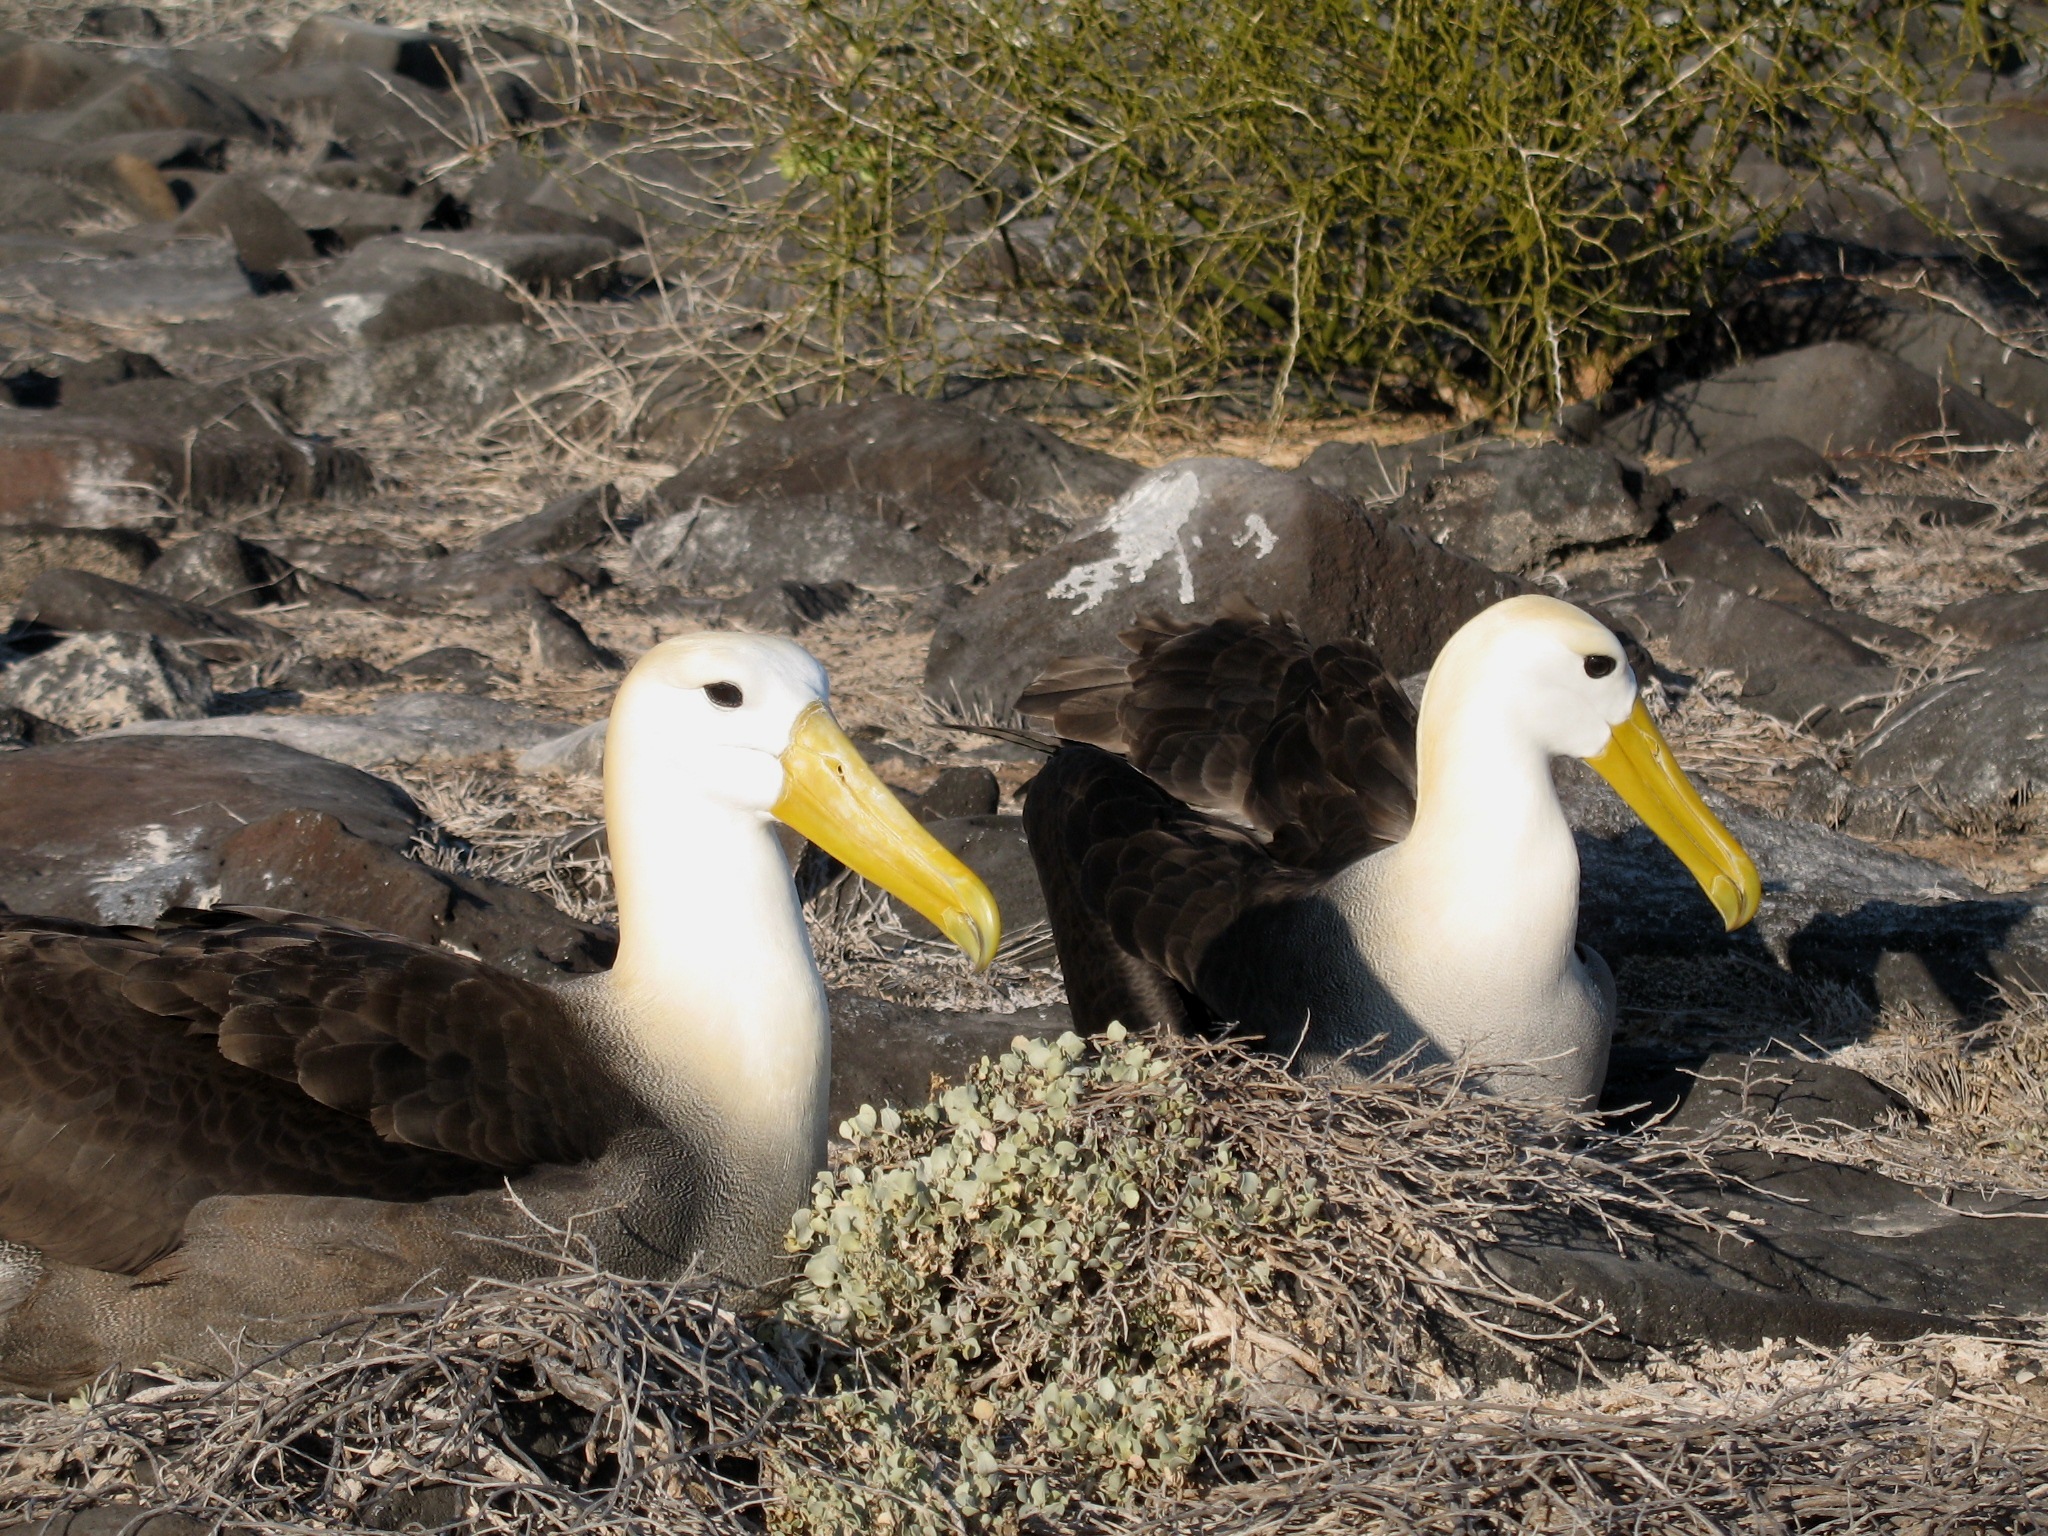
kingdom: Animalia
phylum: Chordata
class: Aves
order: Procellariiformes
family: Diomedeidae
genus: Phoebastria
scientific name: Phoebastria irrorata
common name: Waved albatross
